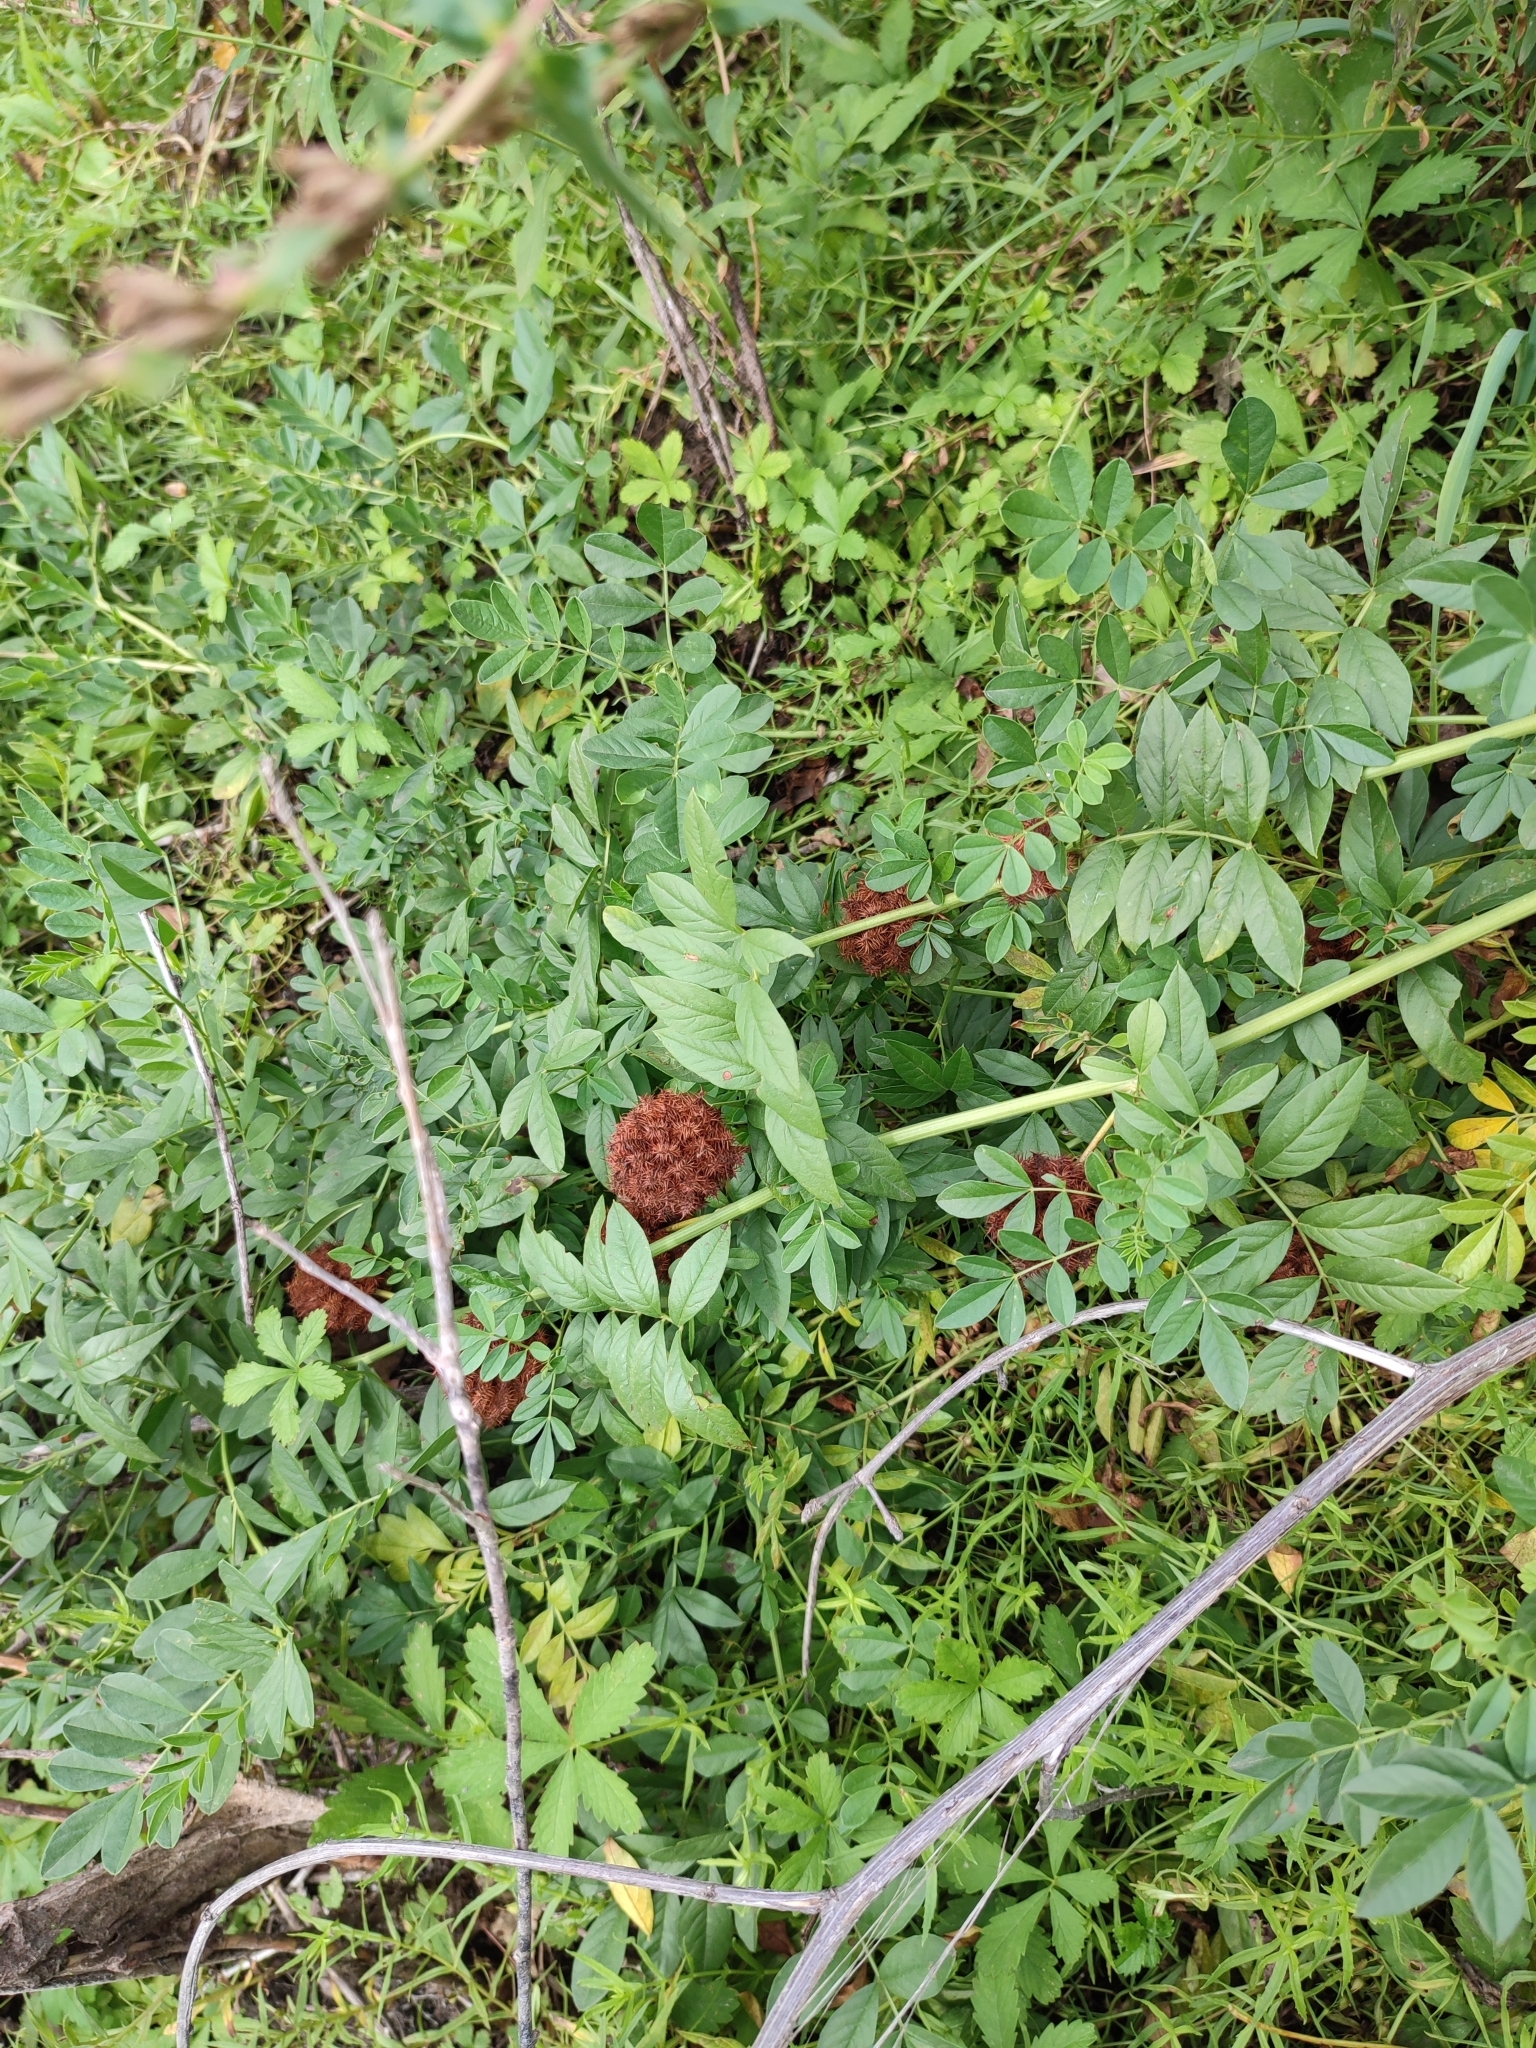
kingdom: Plantae
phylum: Tracheophyta
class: Magnoliopsida
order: Fabales
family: Fabaceae
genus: Glycyrrhiza
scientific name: Glycyrrhiza echinata
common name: German liquorice
